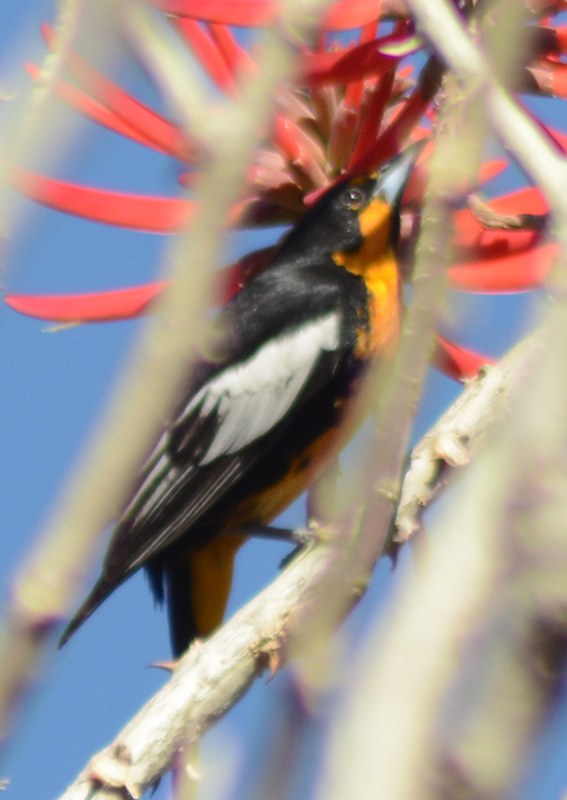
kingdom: Animalia
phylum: Chordata
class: Aves
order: Passeriformes
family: Icteridae
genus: Icterus
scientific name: Icterus abeillei
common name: Black-backed oriole
